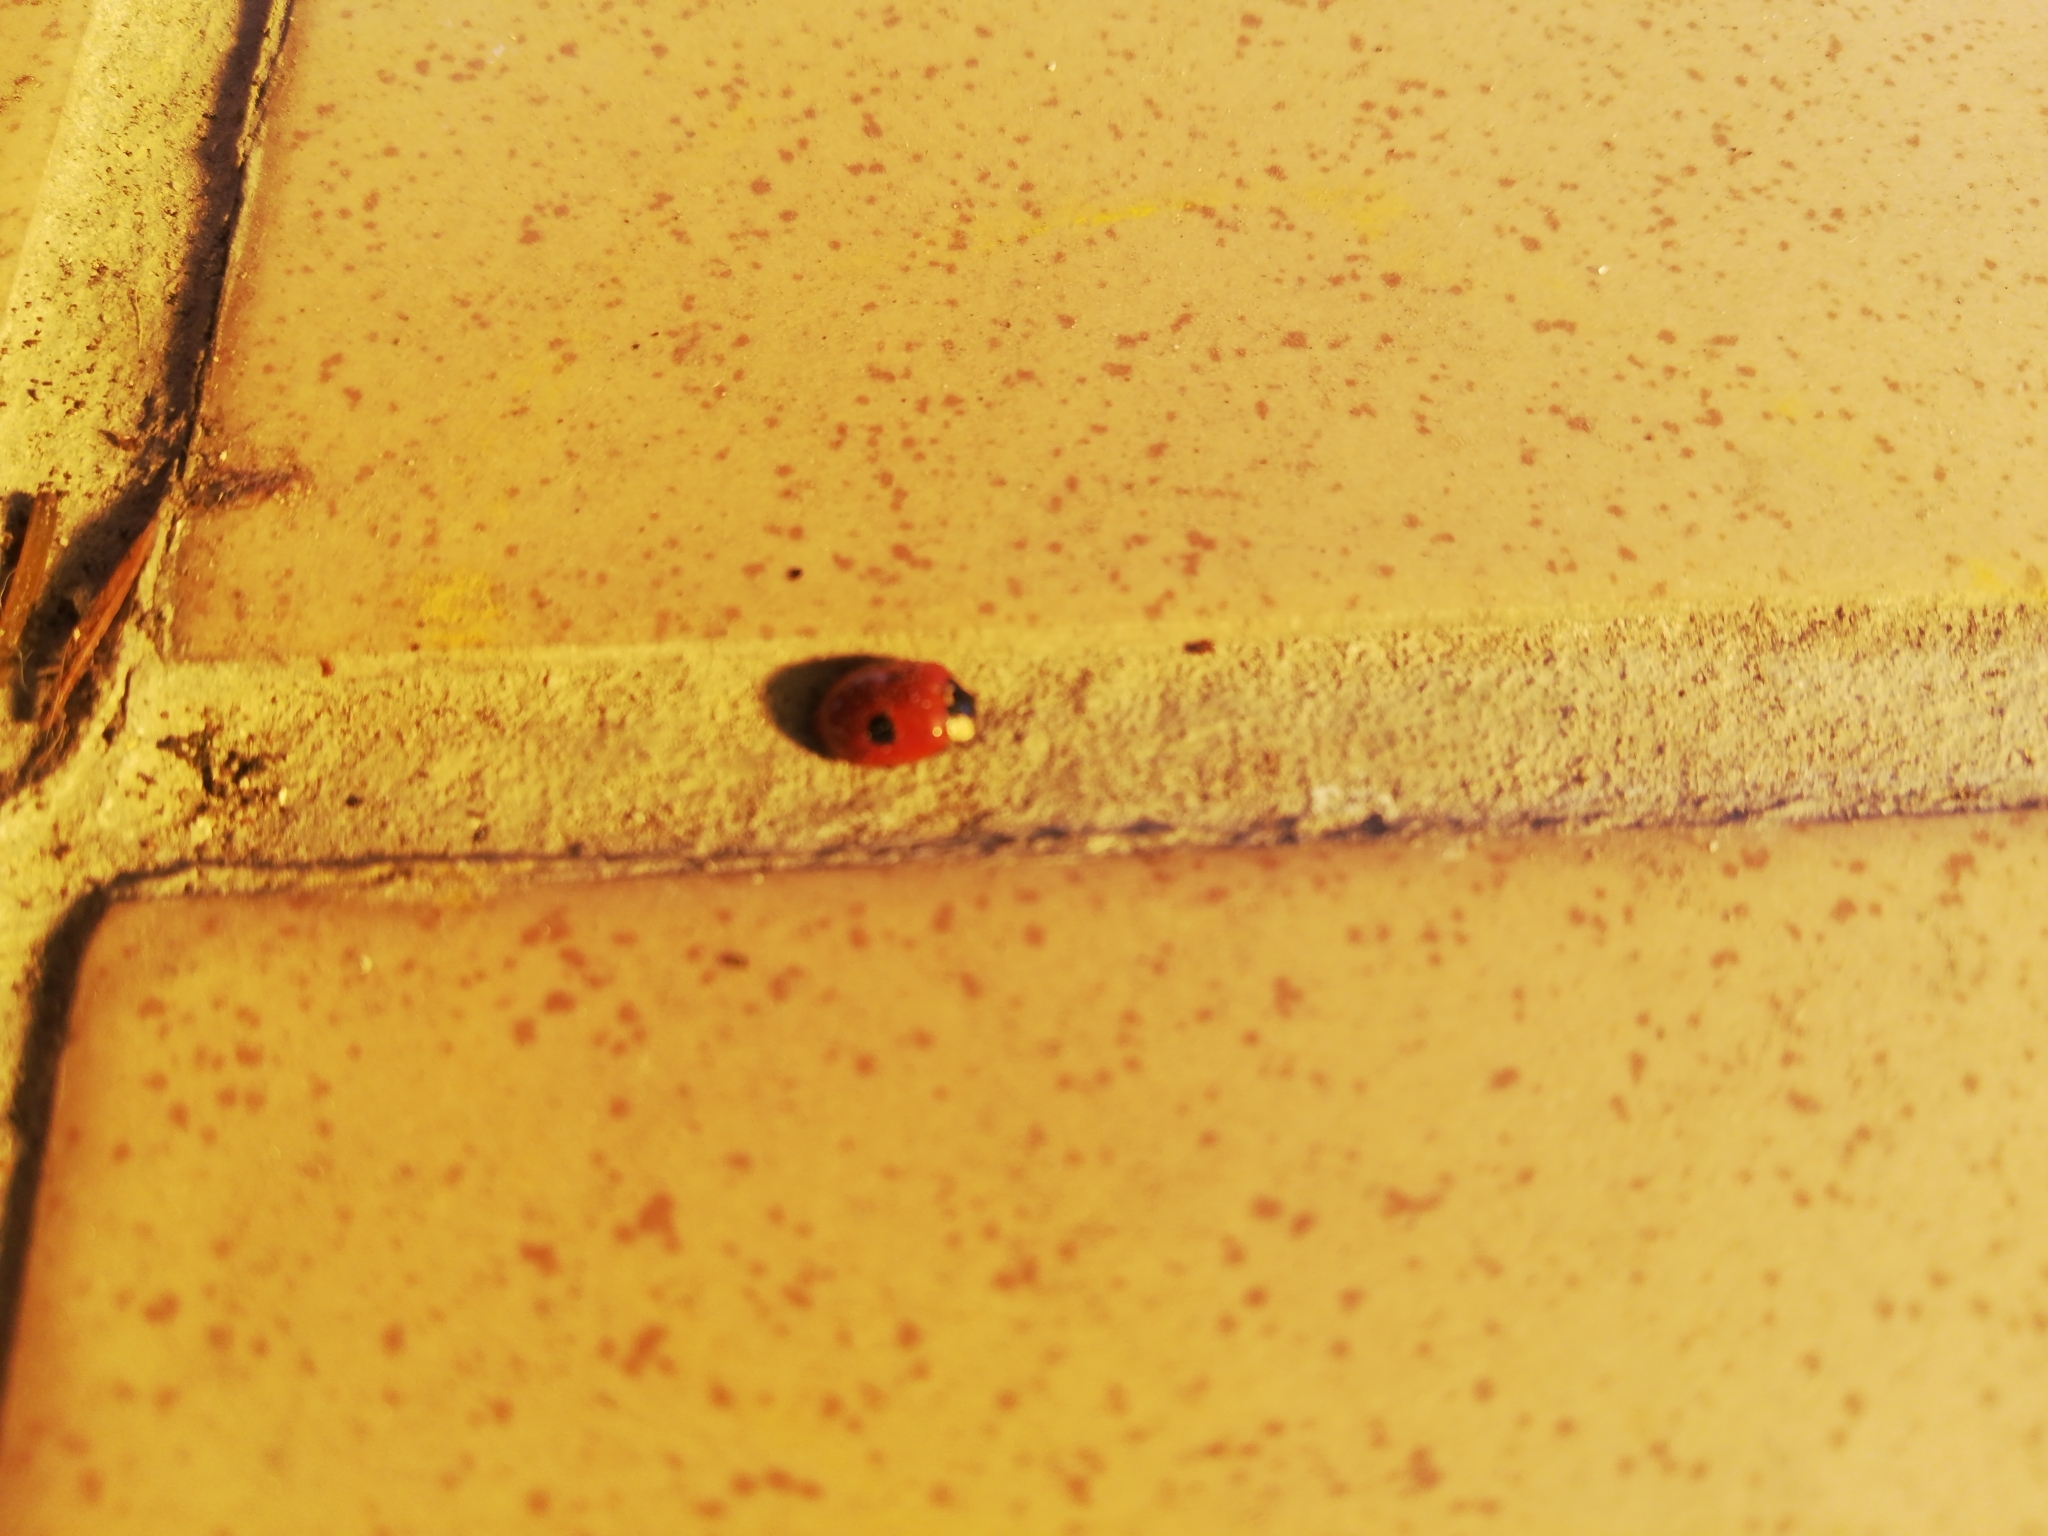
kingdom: Animalia
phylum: Arthropoda
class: Insecta
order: Coleoptera
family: Coccinellidae
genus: Adalia
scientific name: Adalia bipunctata
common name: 2-spot ladybird
